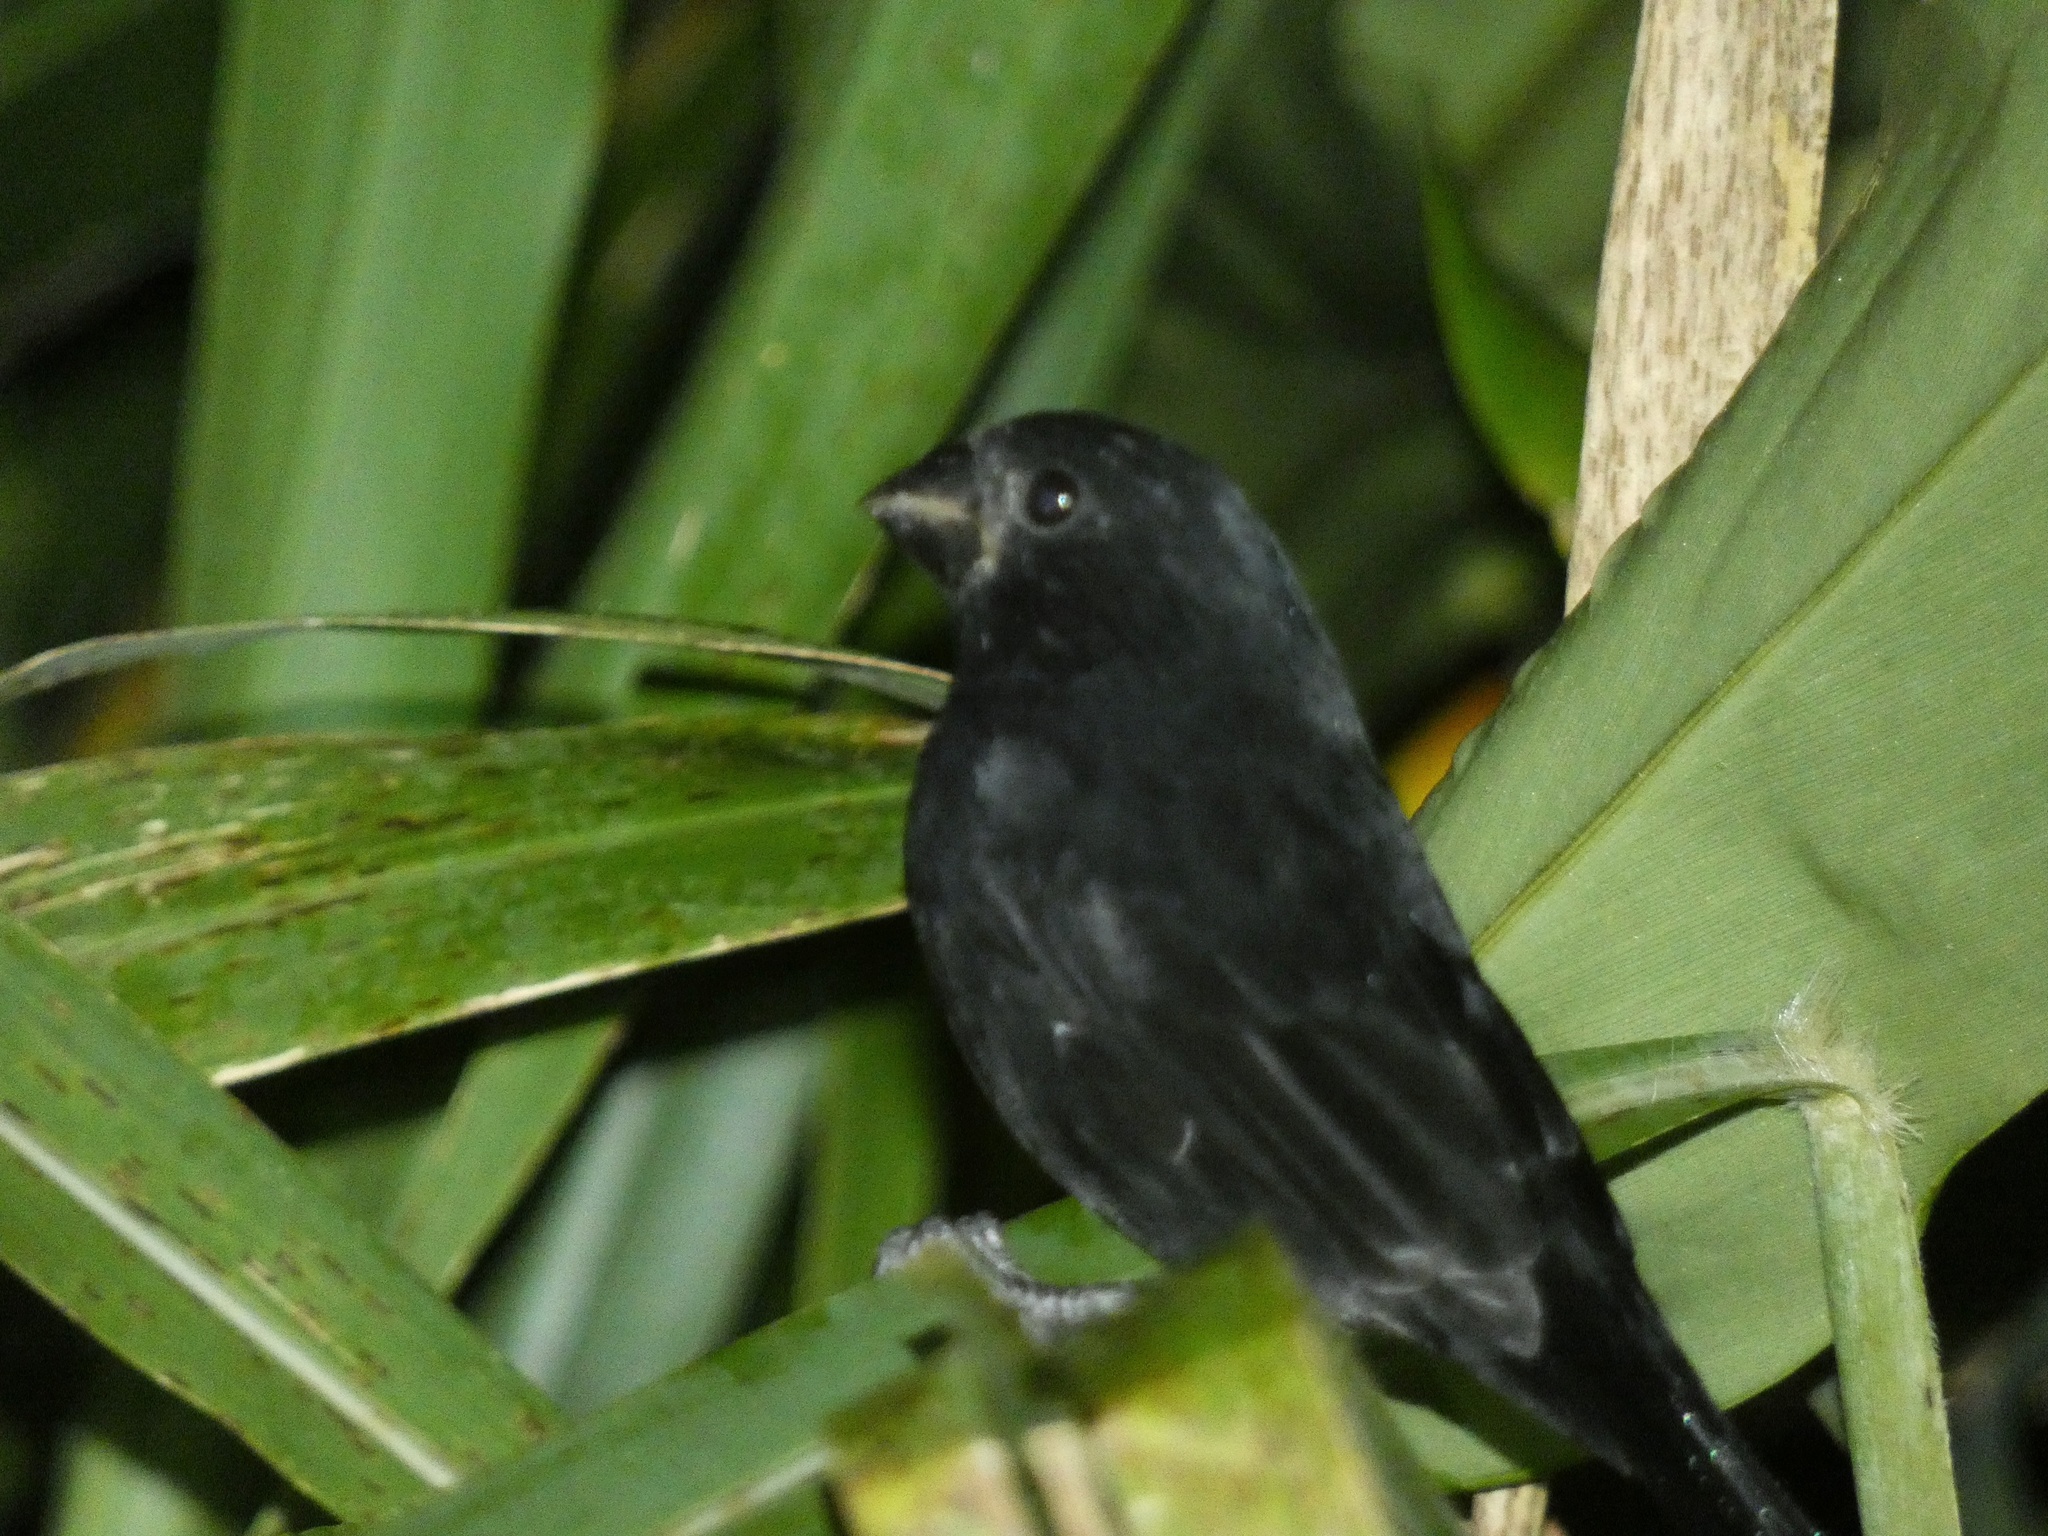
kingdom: Animalia
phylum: Chordata
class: Aves
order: Passeriformes
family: Thraupidae
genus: Sporophila
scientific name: Sporophila funerea
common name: Thick-billed seed-finch
